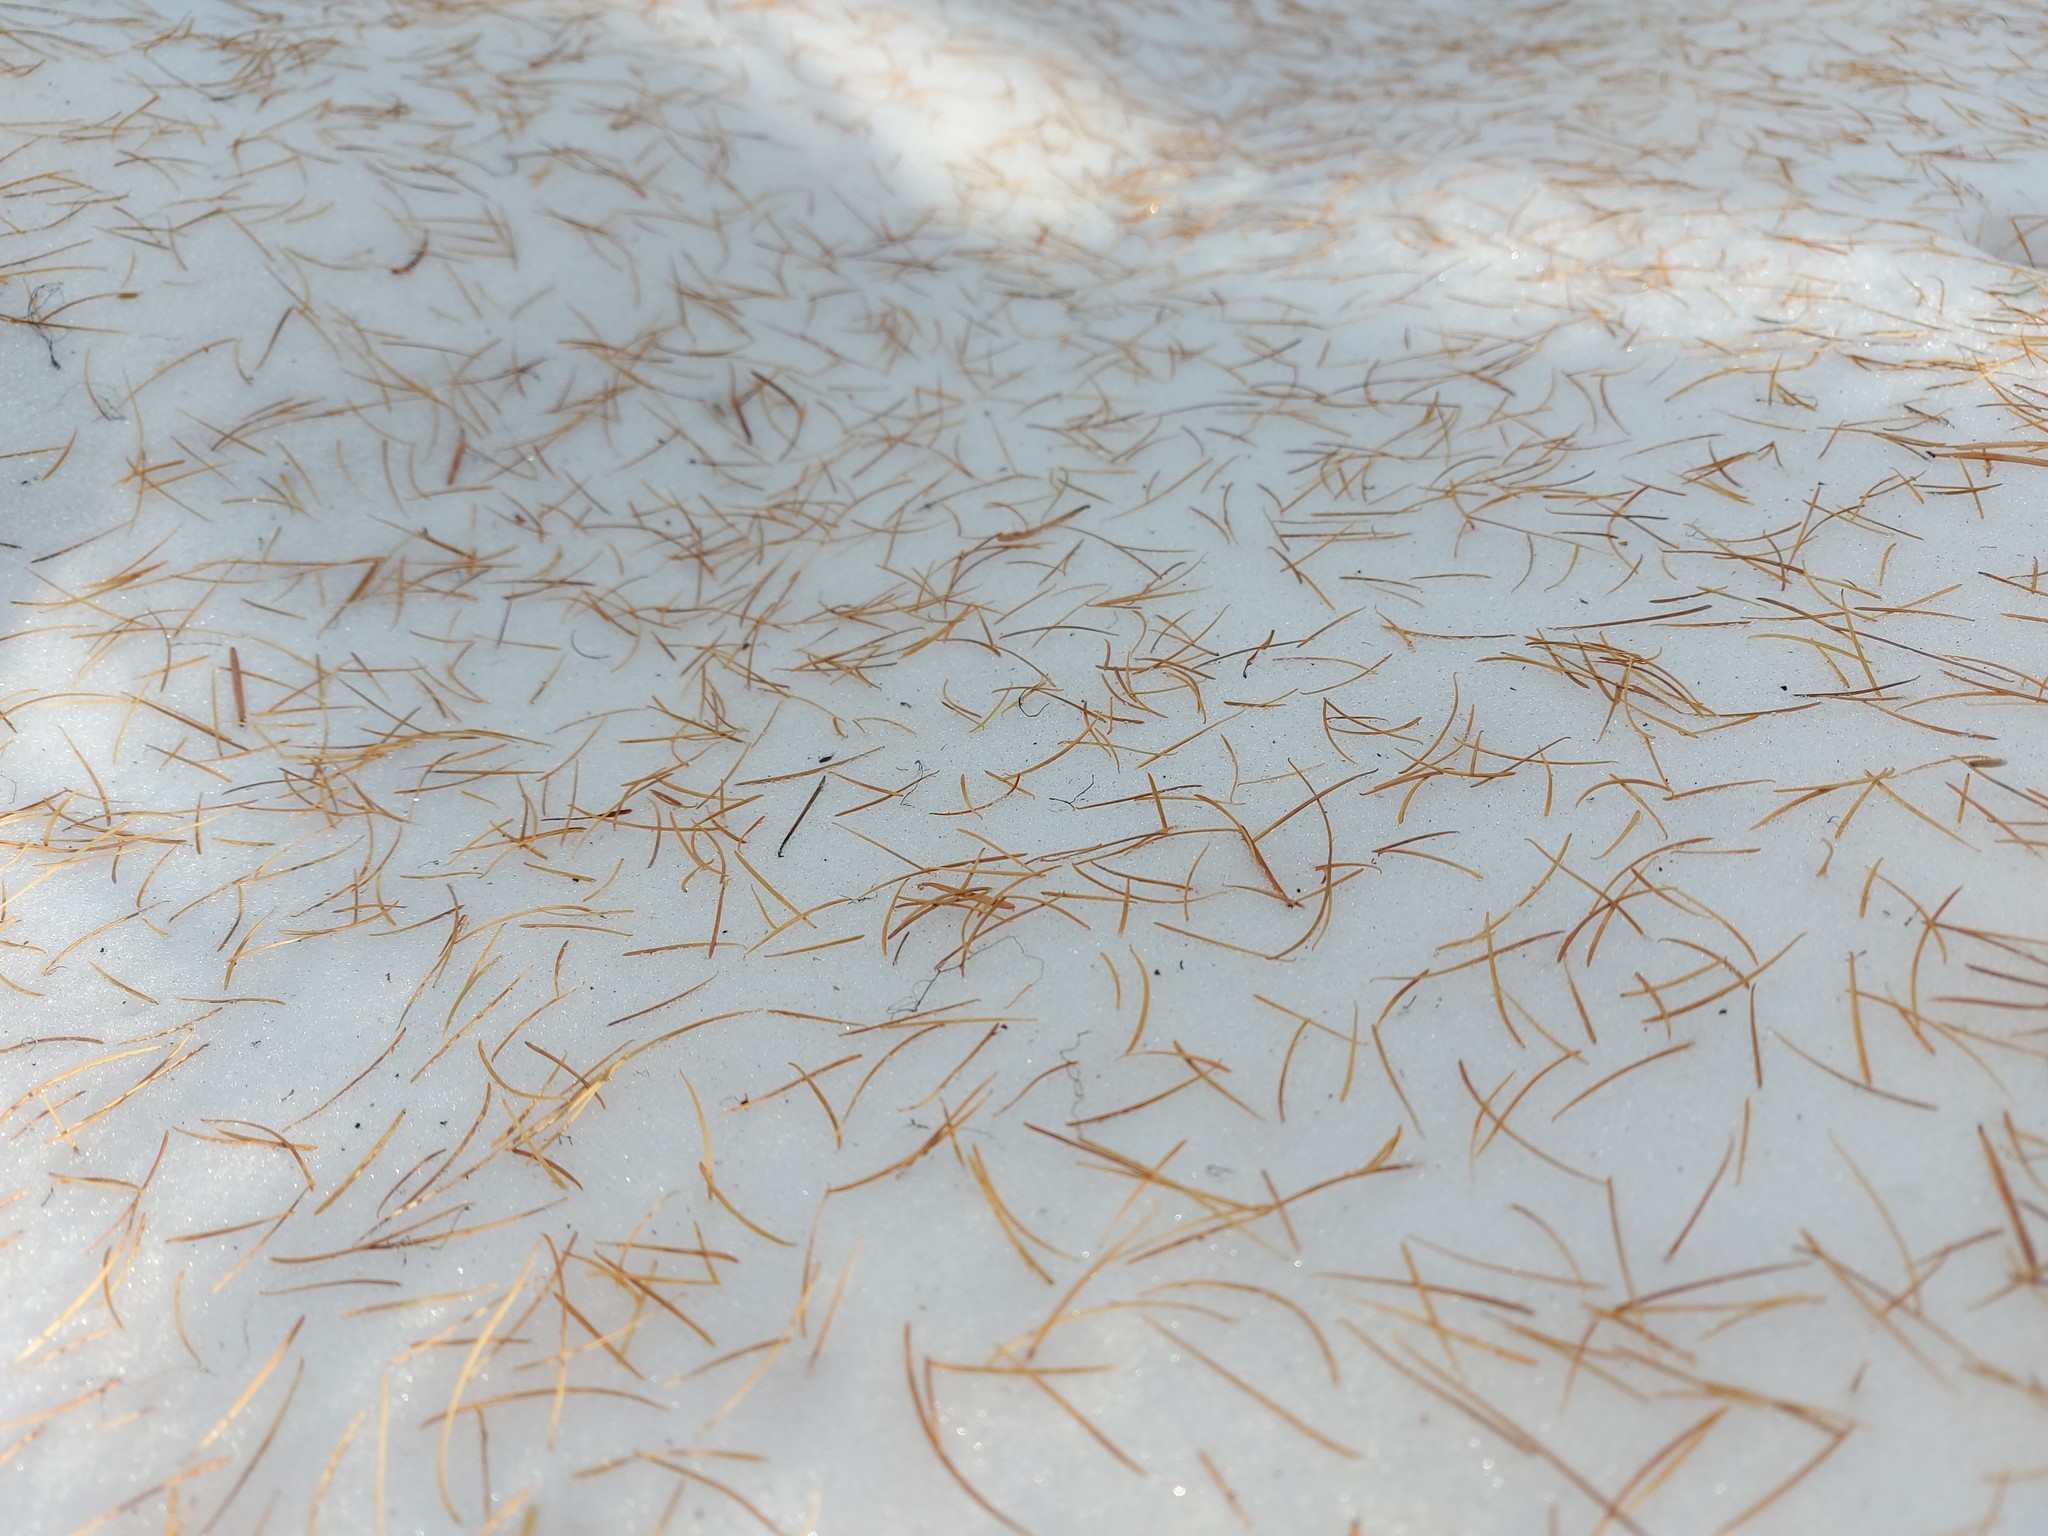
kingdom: Plantae
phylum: Tracheophyta
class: Pinopsida
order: Pinales
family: Pinaceae
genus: Larix
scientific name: Larix occidentalis
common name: Western larch
